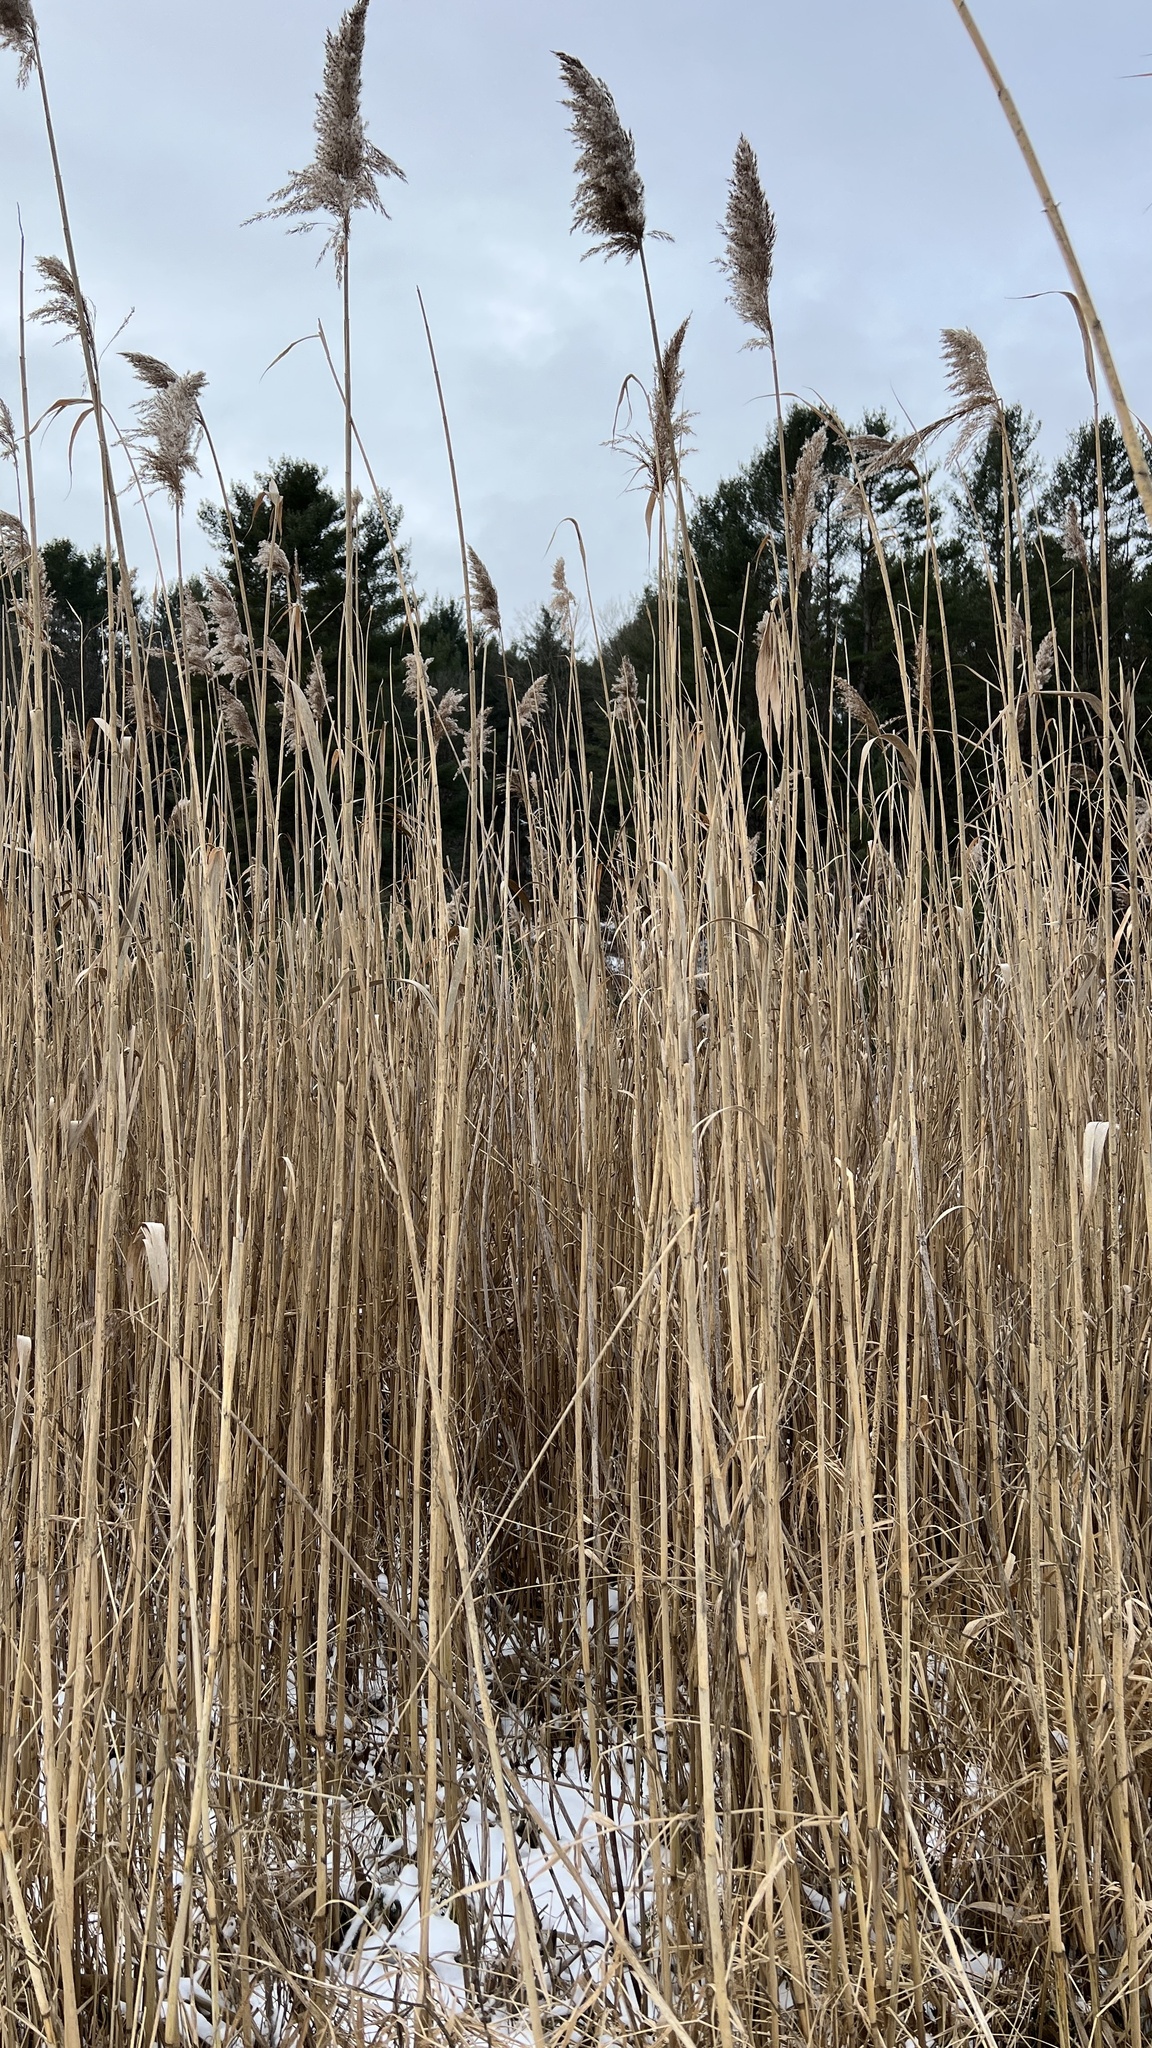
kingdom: Plantae
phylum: Tracheophyta
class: Liliopsida
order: Poales
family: Poaceae
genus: Phragmites
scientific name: Phragmites australis
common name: Common reed
